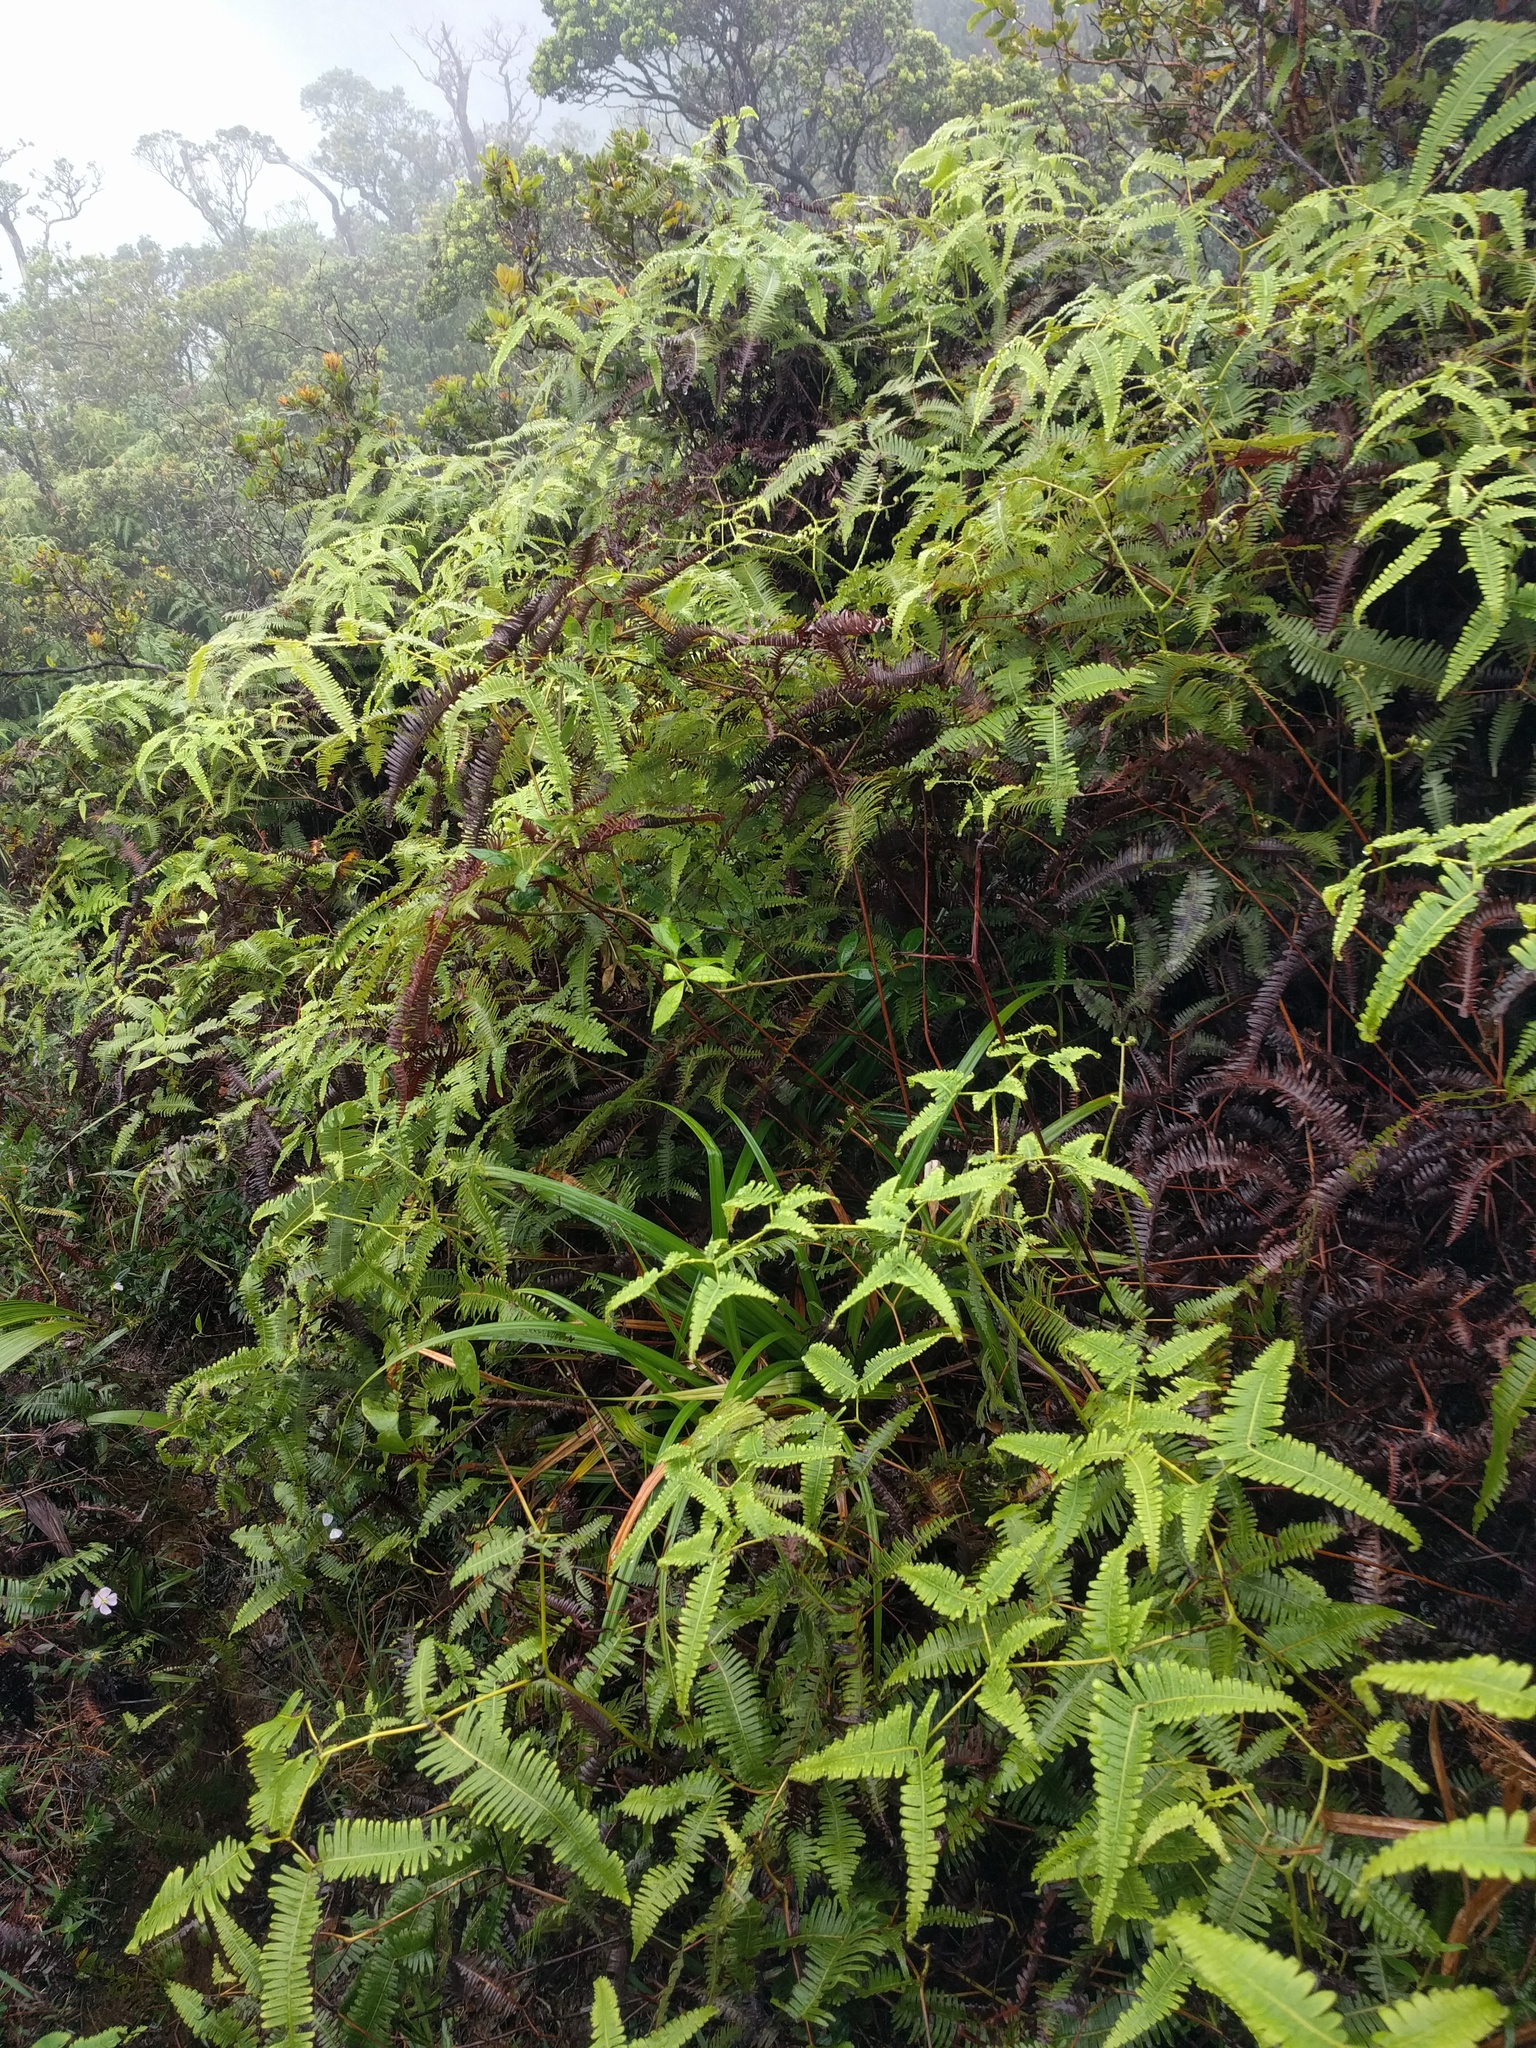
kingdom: Plantae
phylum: Tracheophyta
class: Polypodiopsida
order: Gleicheniales
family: Gleicheniaceae
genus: Dicranopteris
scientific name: Dicranopteris linearis
